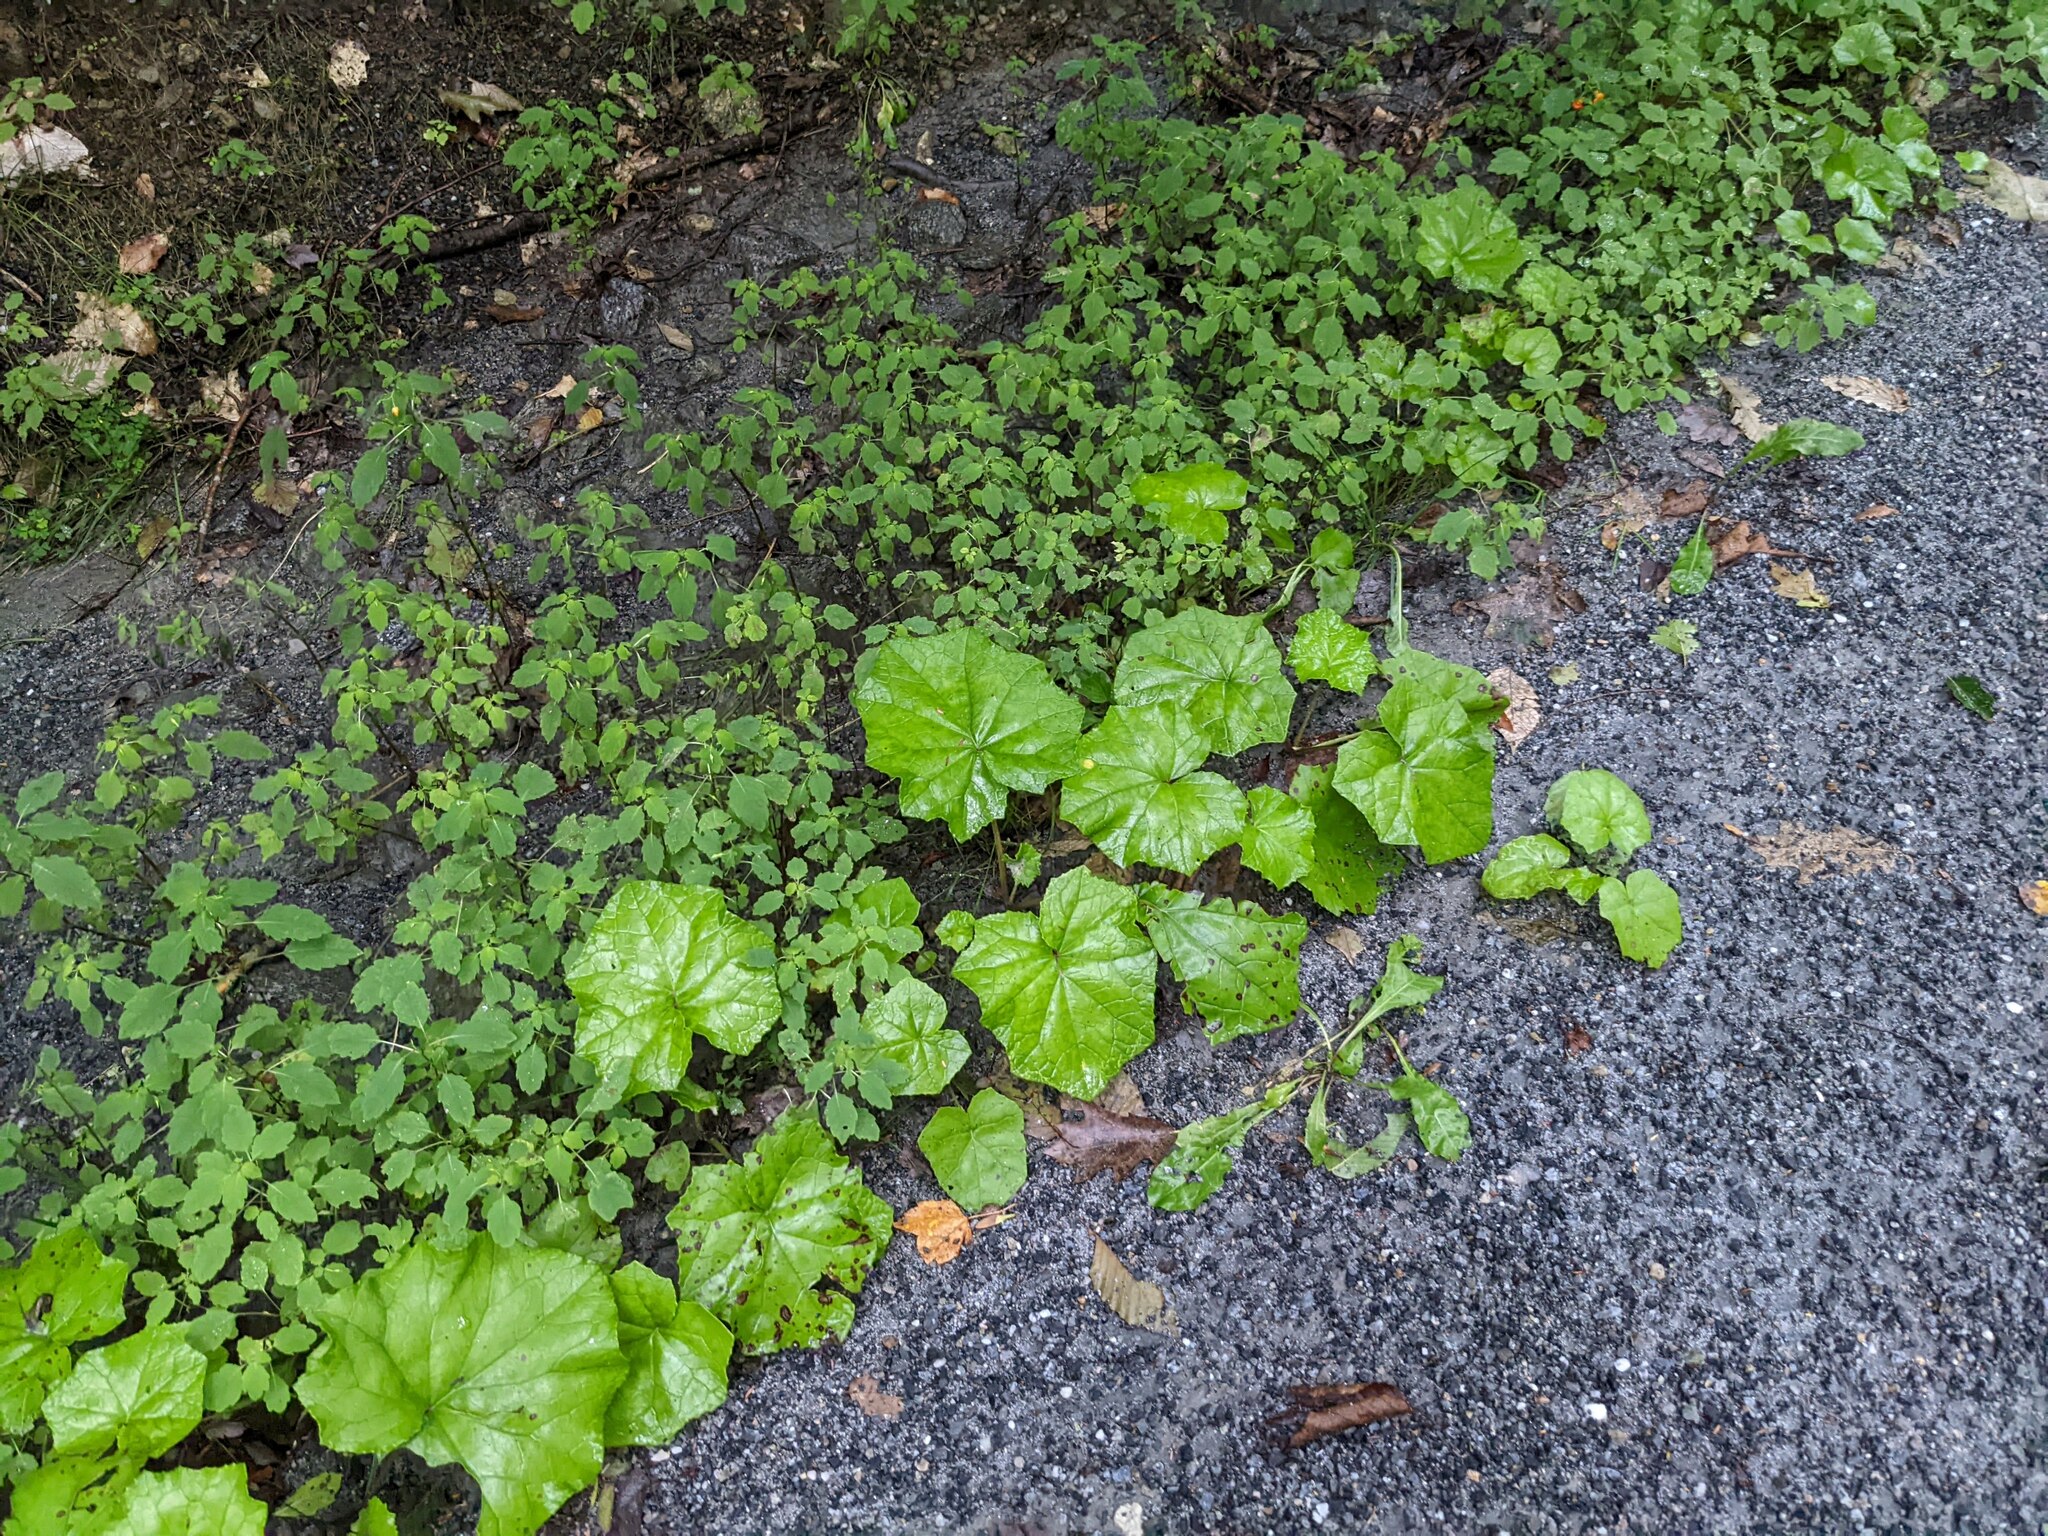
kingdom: Plantae
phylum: Tracheophyta
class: Magnoliopsida
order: Asterales
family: Asteraceae
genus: Tussilago
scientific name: Tussilago farfara
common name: Coltsfoot
